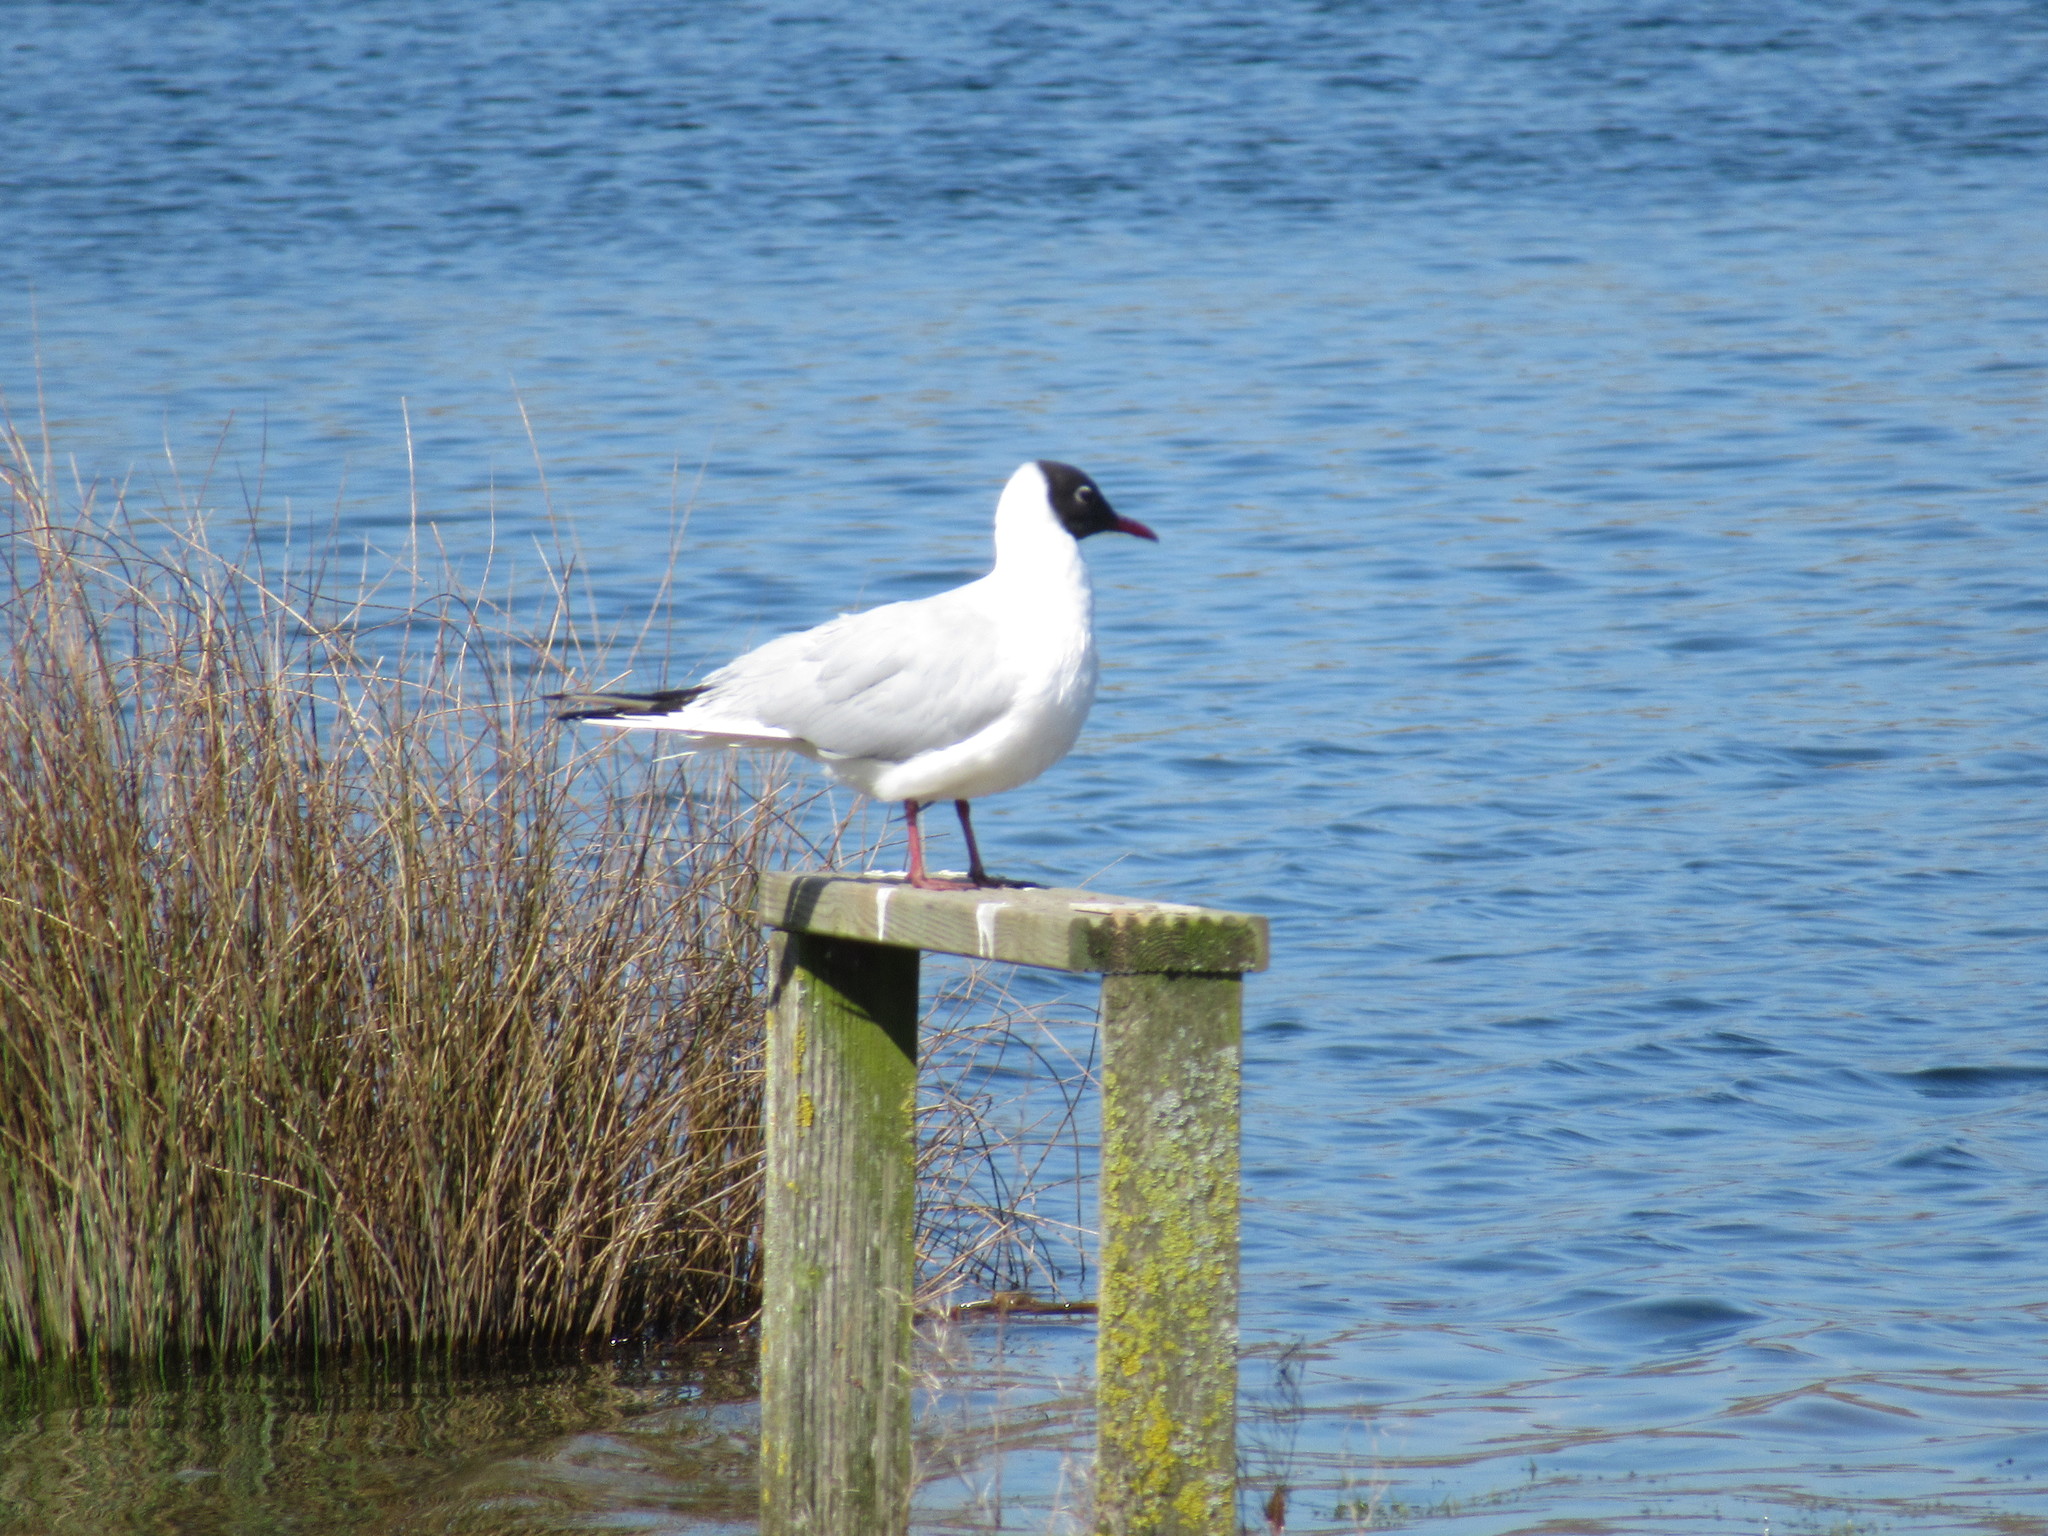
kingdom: Animalia
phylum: Chordata
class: Aves
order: Charadriiformes
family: Laridae
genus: Chroicocephalus
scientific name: Chroicocephalus ridibundus
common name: Black-headed gull
